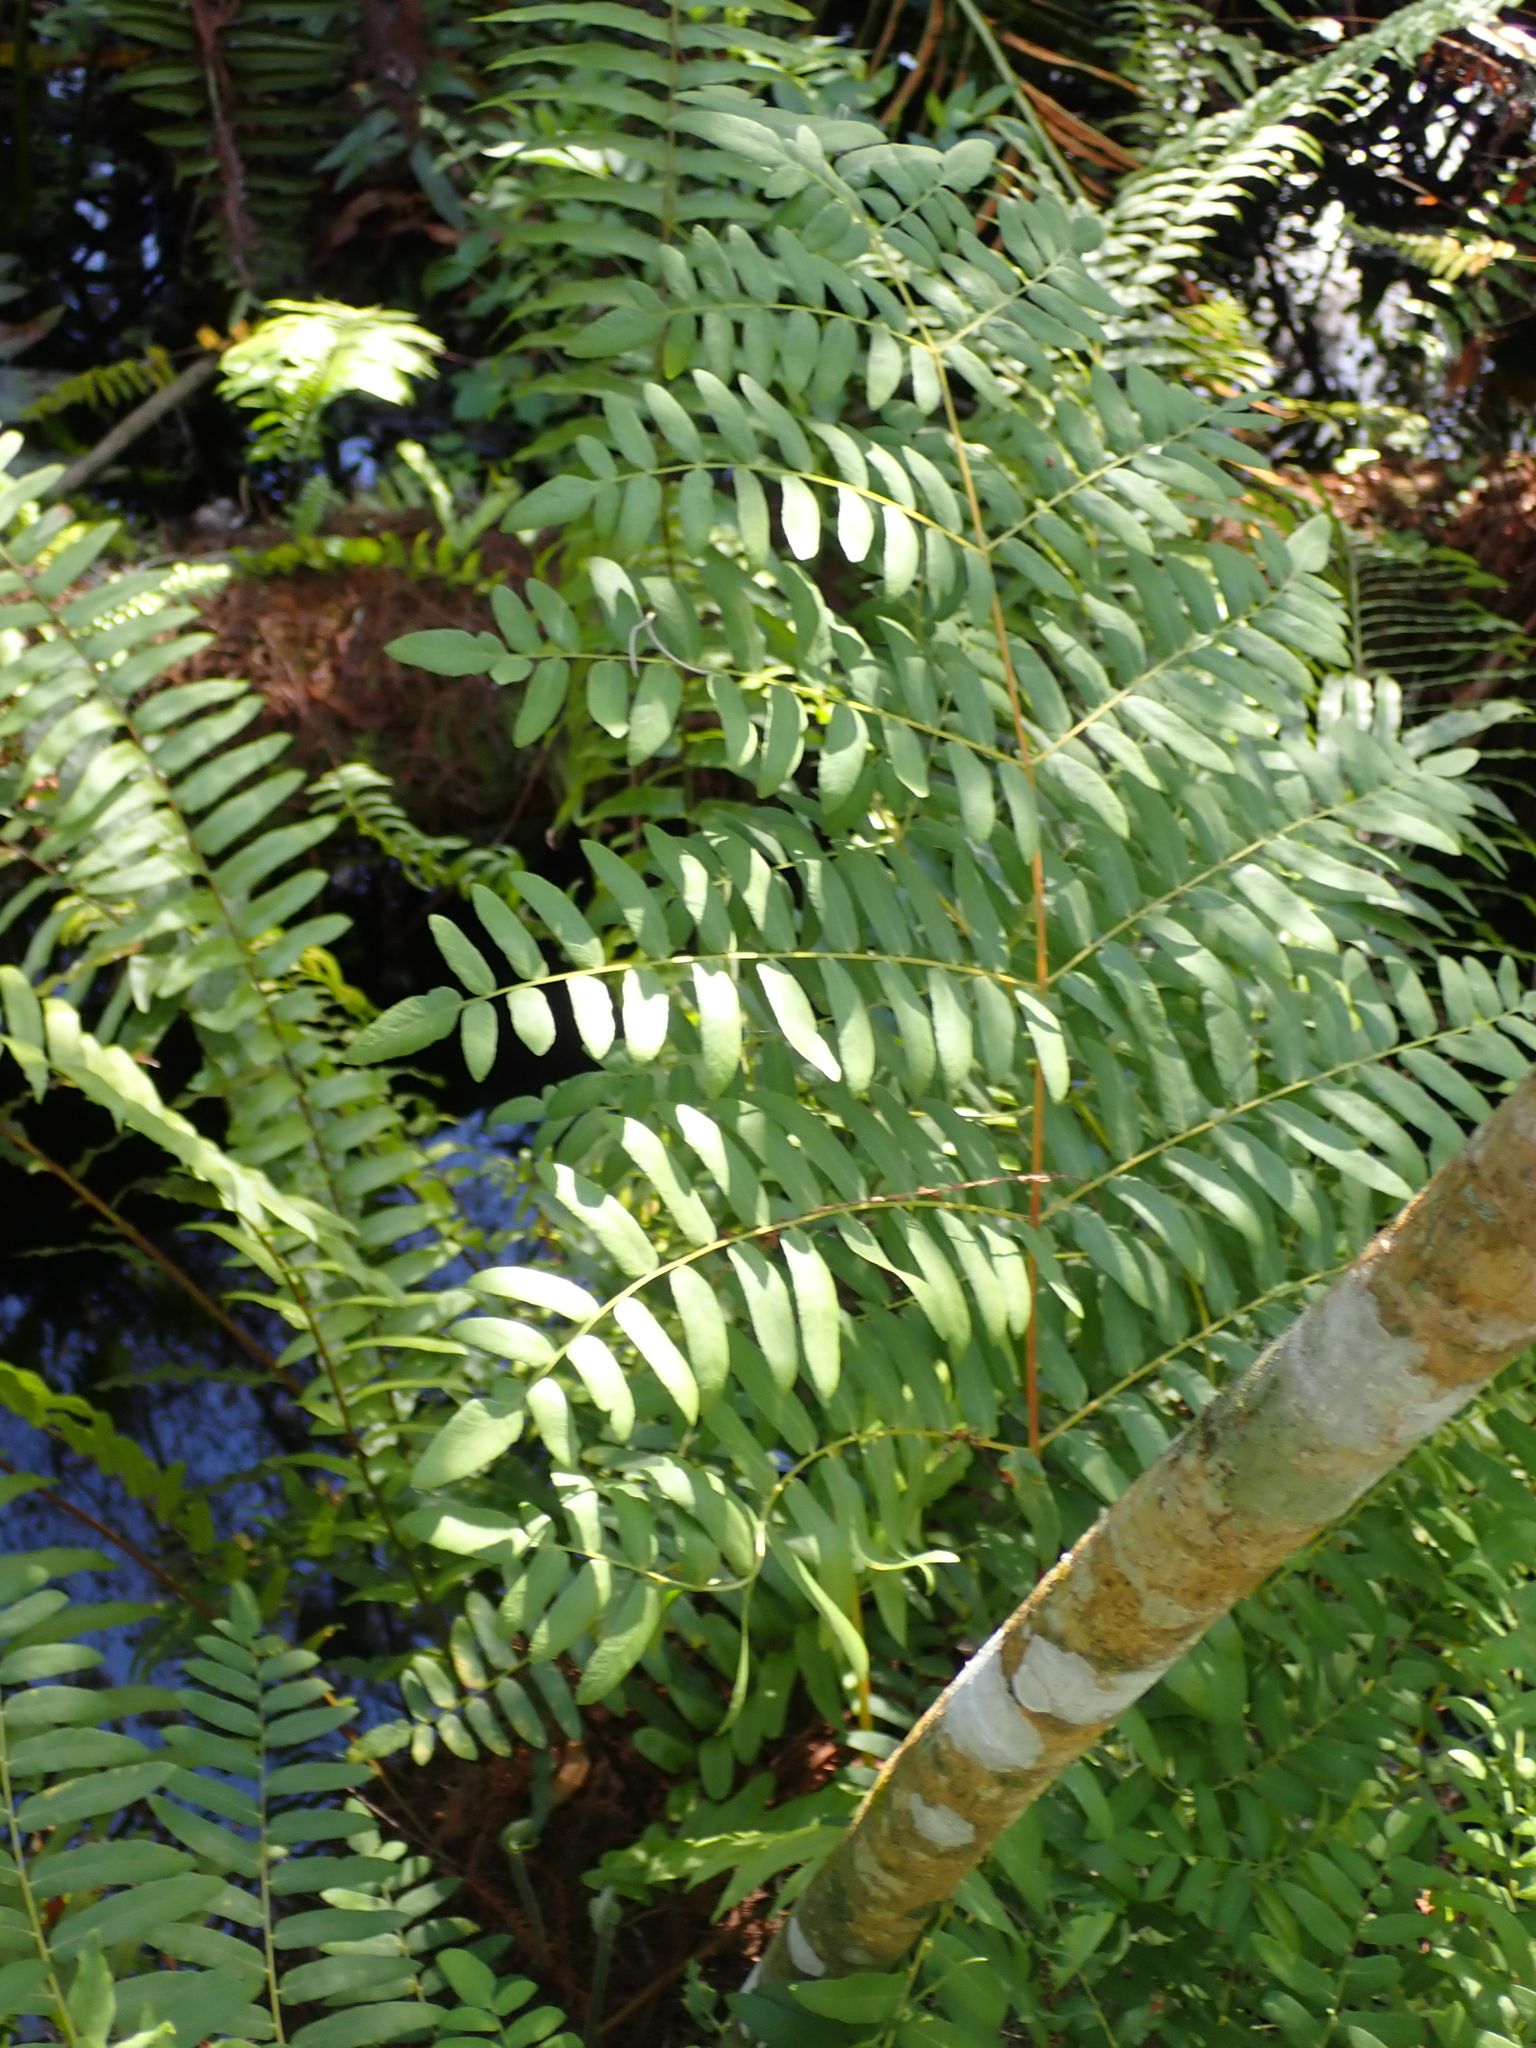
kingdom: Plantae
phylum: Tracheophyta
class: Polypodiopsida
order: Osmundales
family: Osmundaceae
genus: Osmunda
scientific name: Osmunda spectabilis
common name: American royal fern
